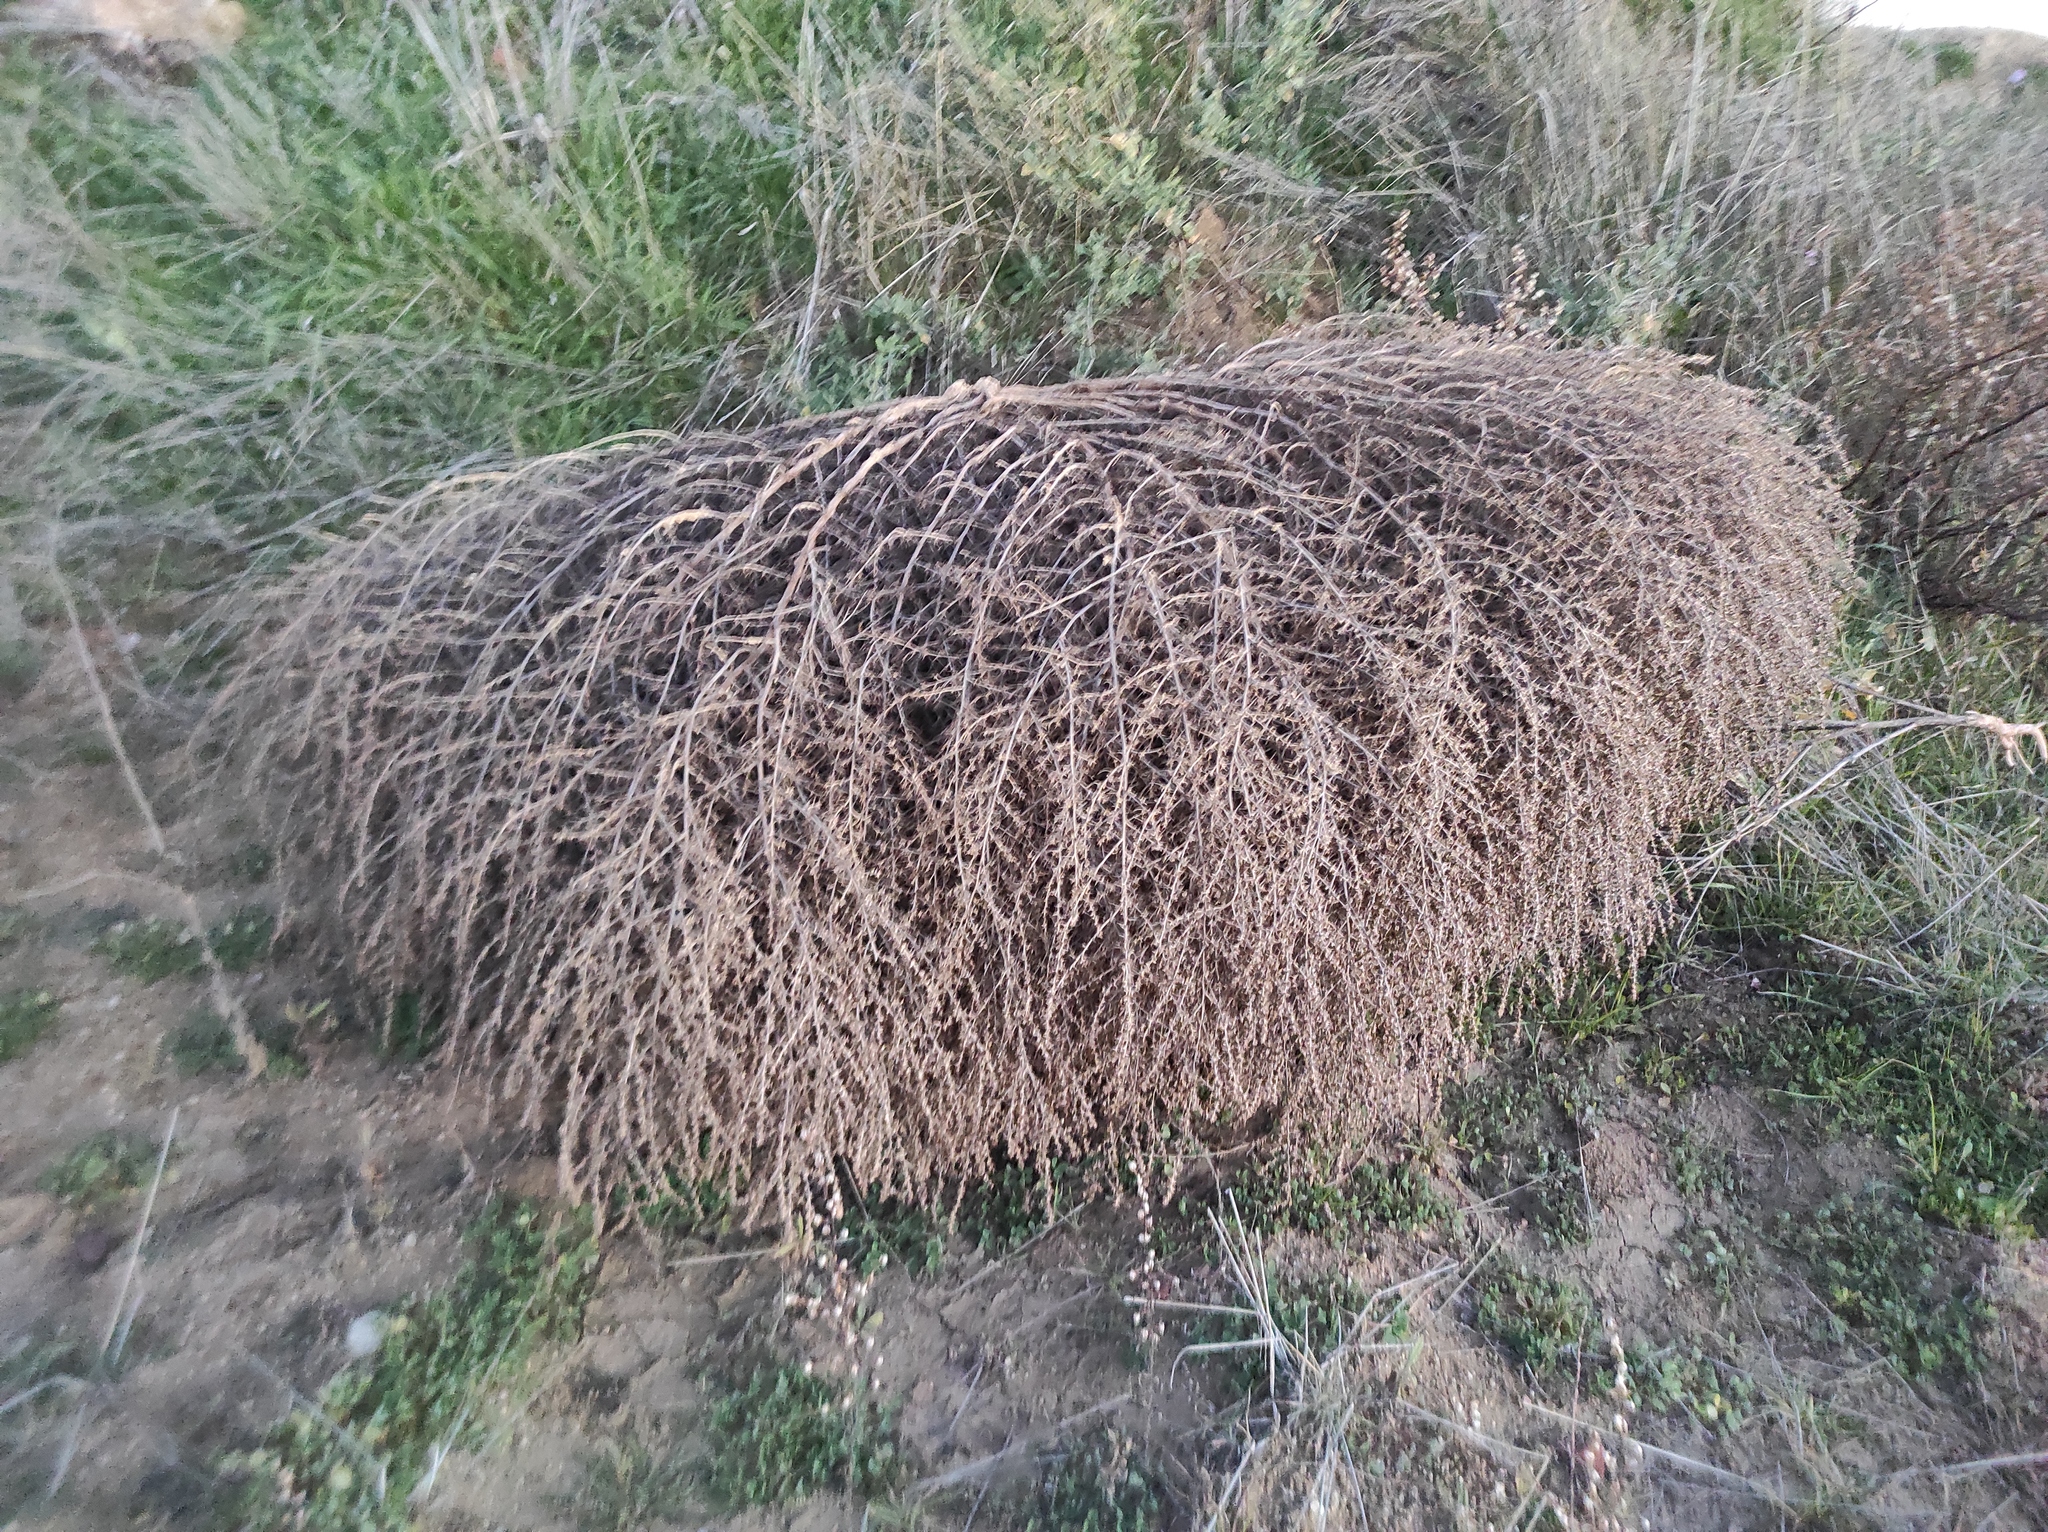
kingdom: Plantae
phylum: Tracheophyta
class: Magnoliopsida
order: Caryophyllales
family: Amaranthaceae
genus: Salsola
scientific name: Salsola kali
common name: Saltwort
